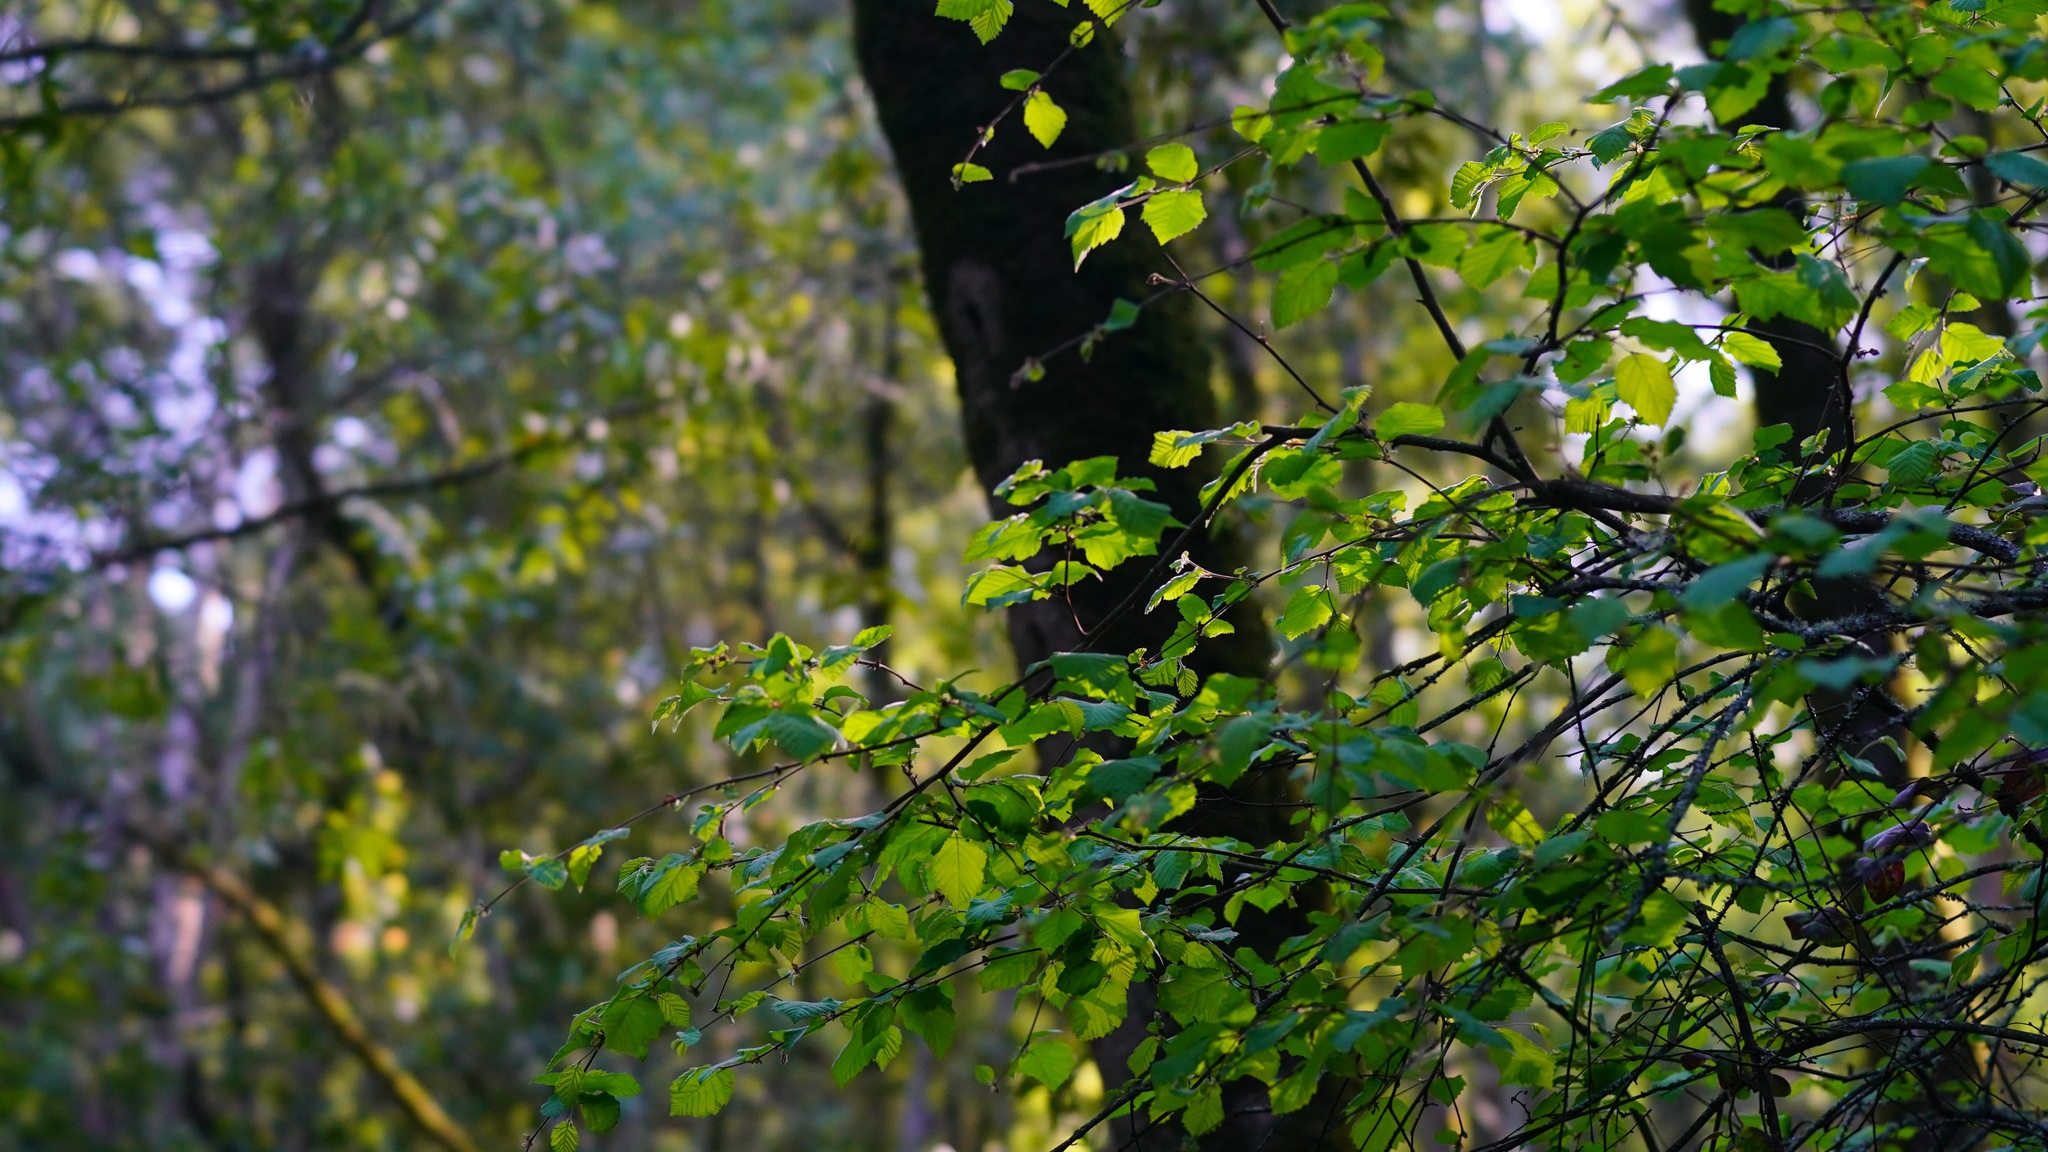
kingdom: Plantae
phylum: Tracheophyta
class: Magnoliopsida
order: Fagales
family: Betulaceae
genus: Corylus
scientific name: Corylus cornuta
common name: Beaked hazel
